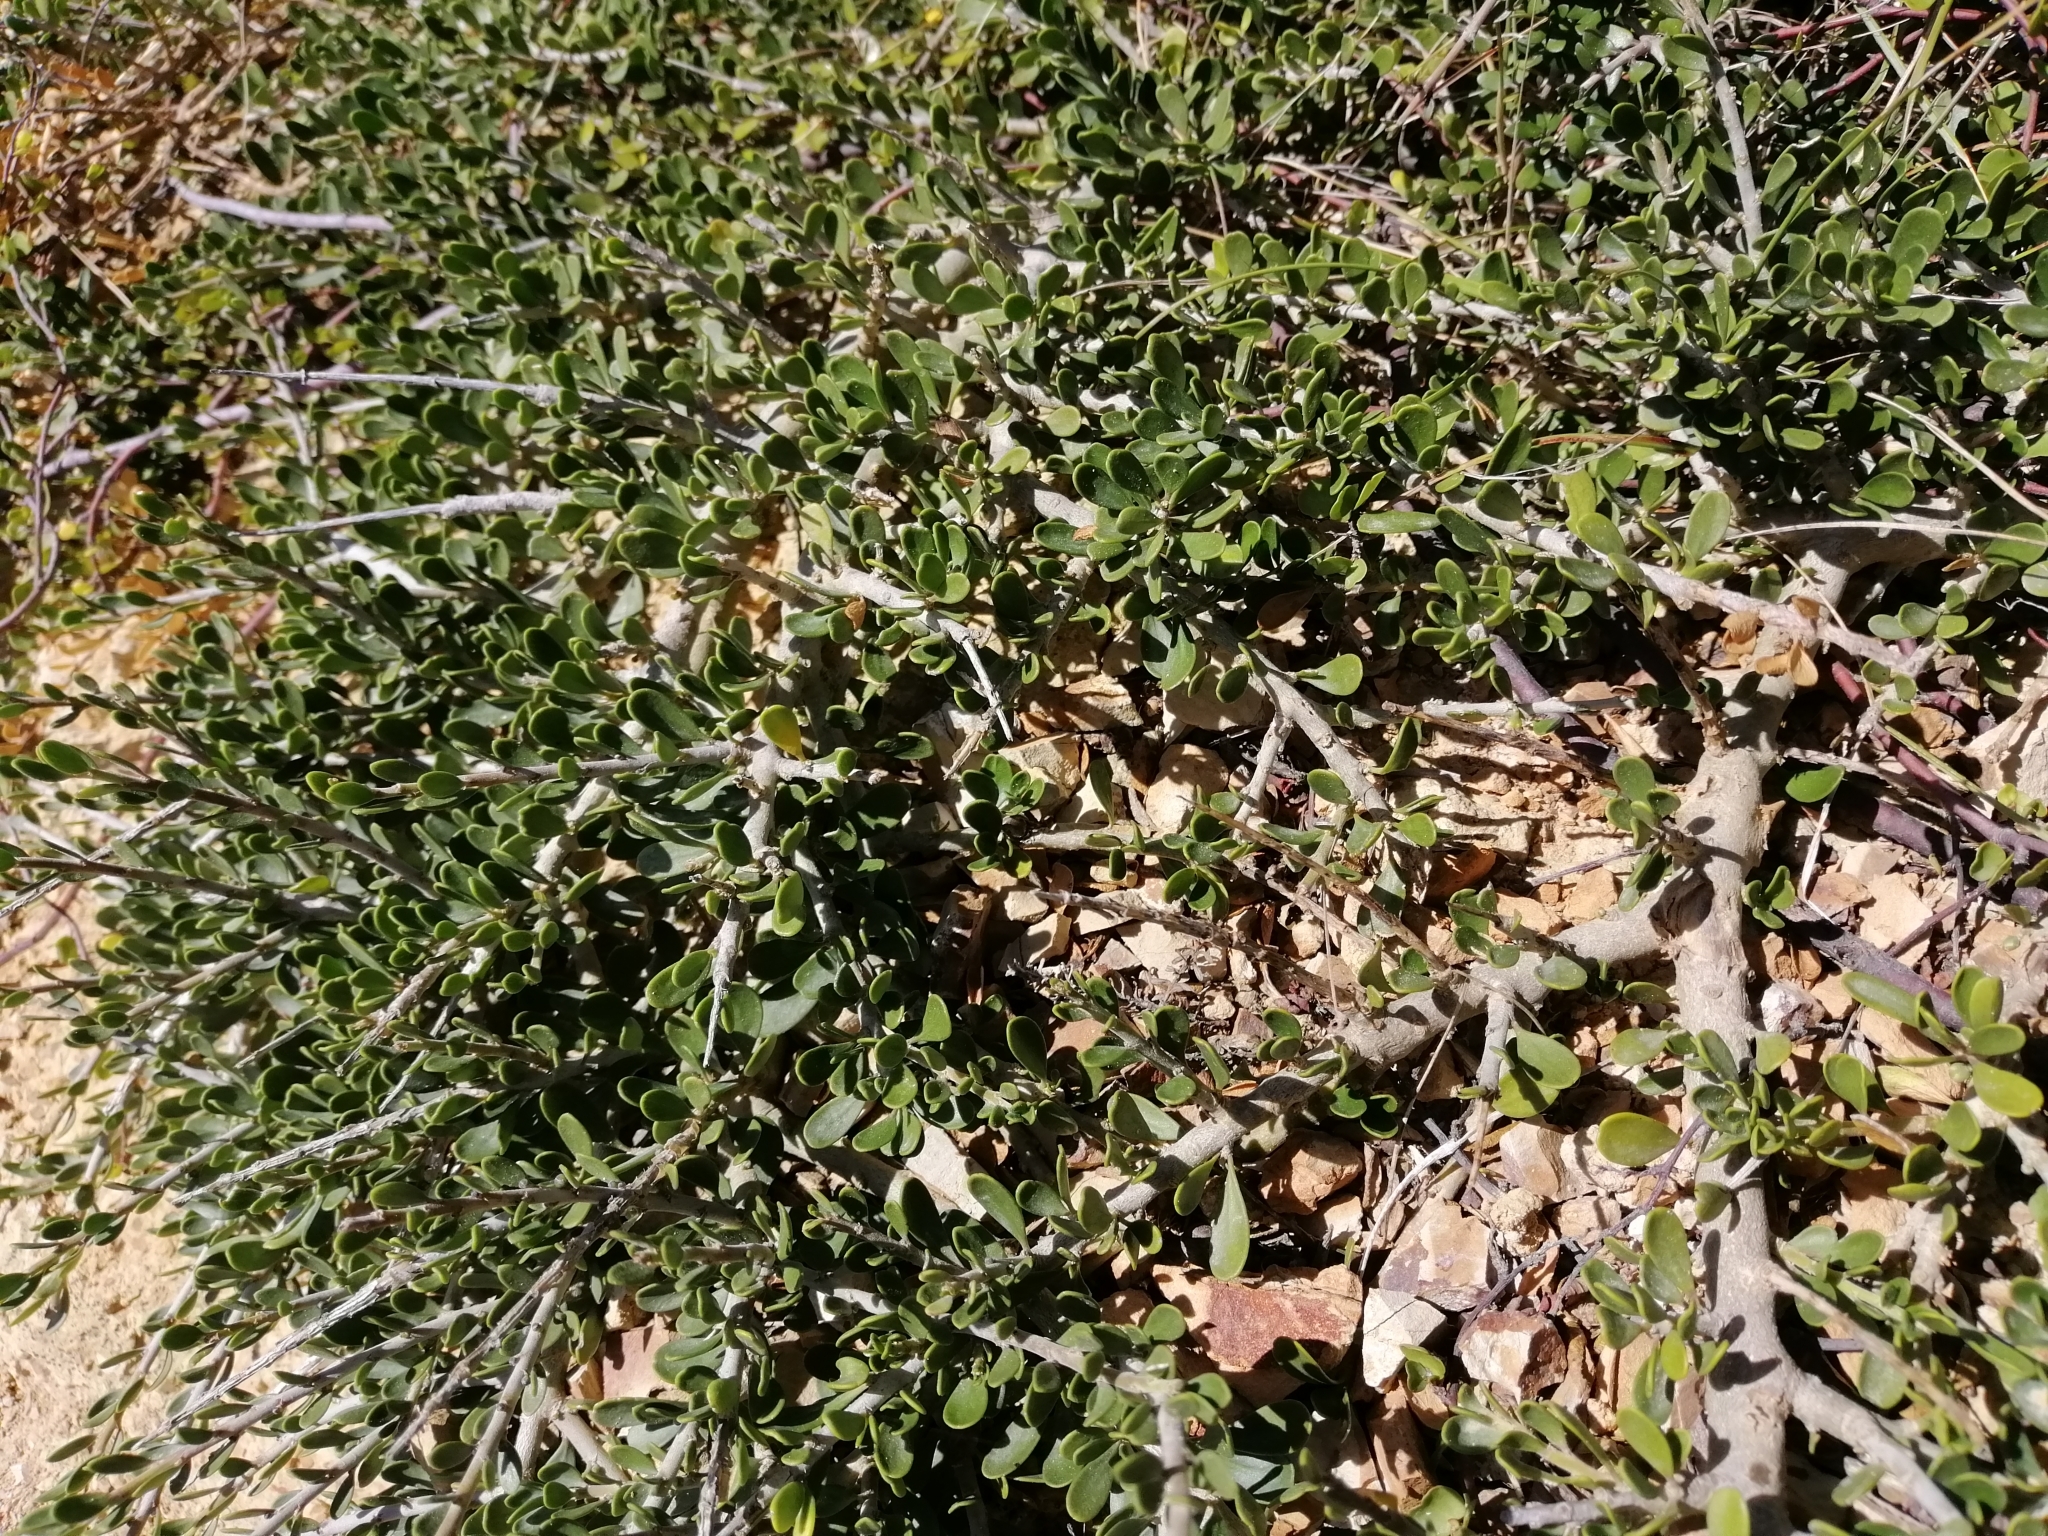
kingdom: Plantae
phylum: Tracheophyta
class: Magnoliopsida
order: Malpighiales
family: Violaceae
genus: Melicytus
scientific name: Melicytus crassifolius
